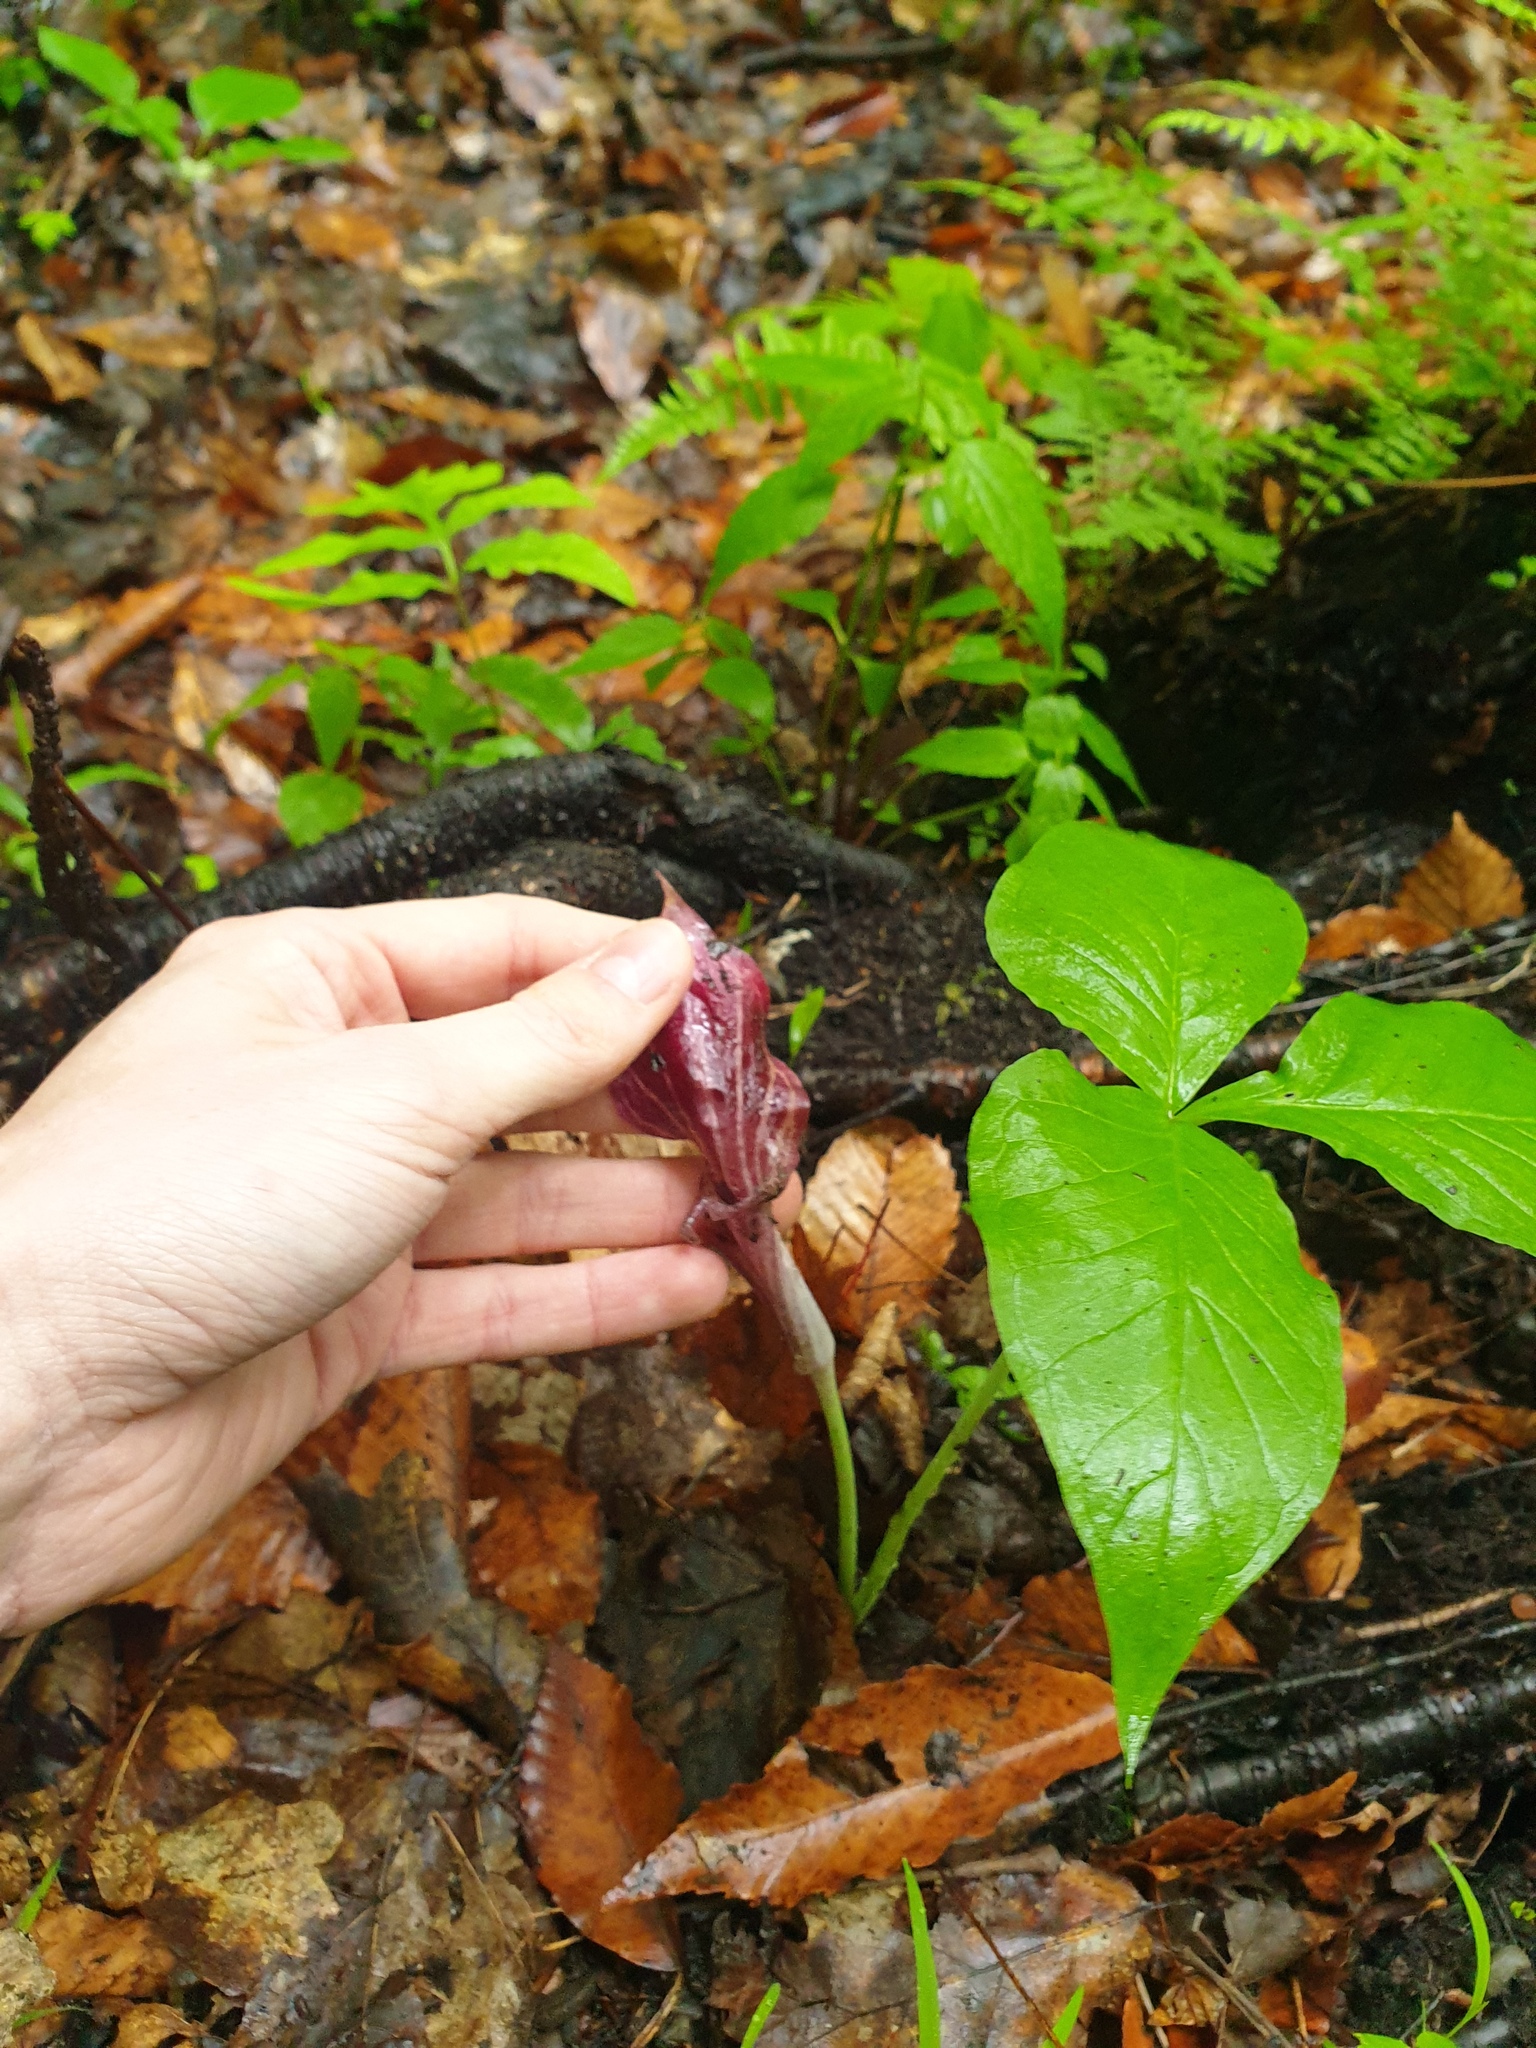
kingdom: Plantae
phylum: Tracheophyta
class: Liliopsida
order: Alismatales
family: Araceae
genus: Arisaema
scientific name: Arisaema triphyllum
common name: Jack-in-the-pulpit
